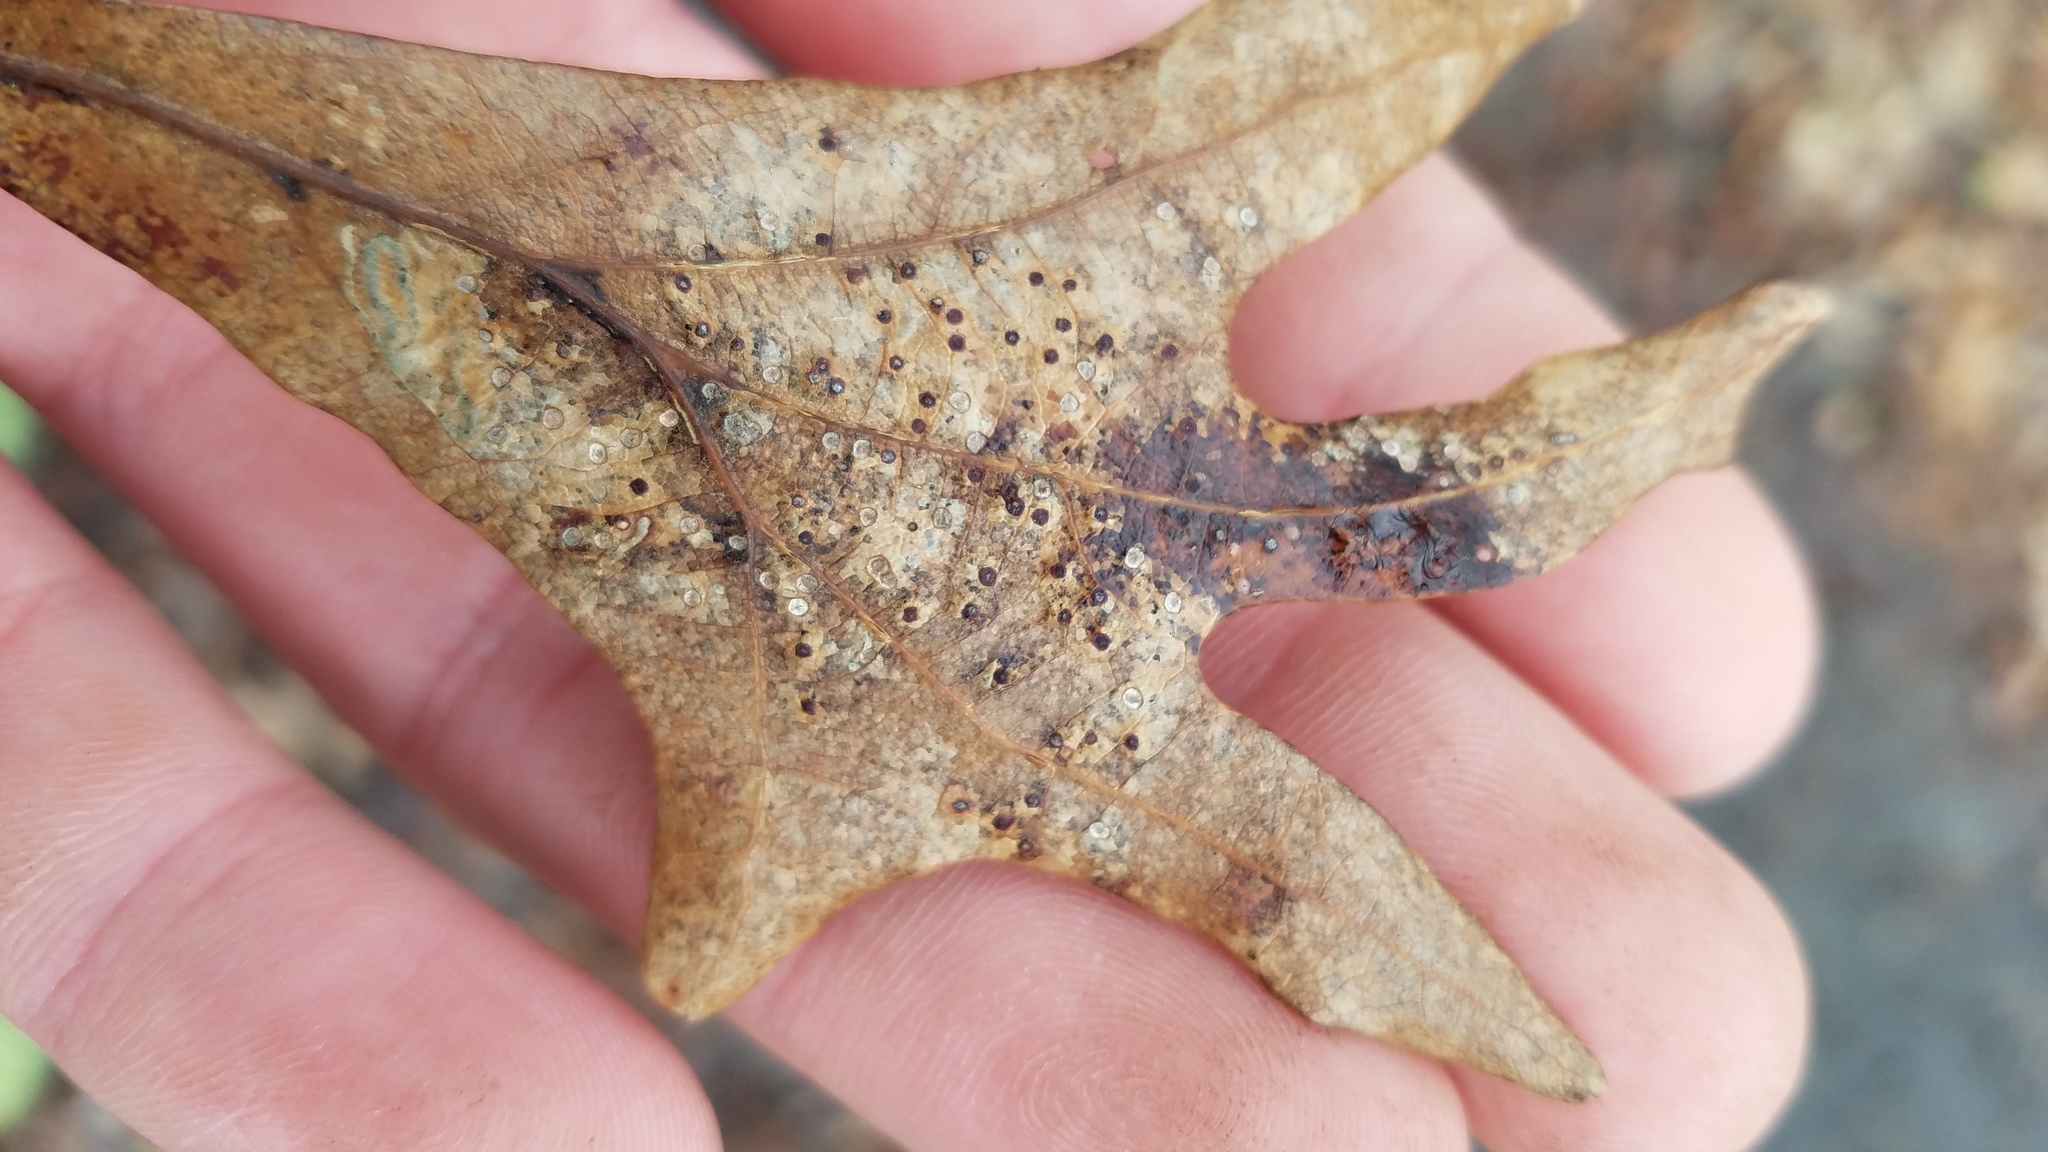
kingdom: Animalia
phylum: Arthropoda
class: Insecta
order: Hymenoptera
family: Cynipidae
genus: Neuroterus
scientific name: Neuroterus
